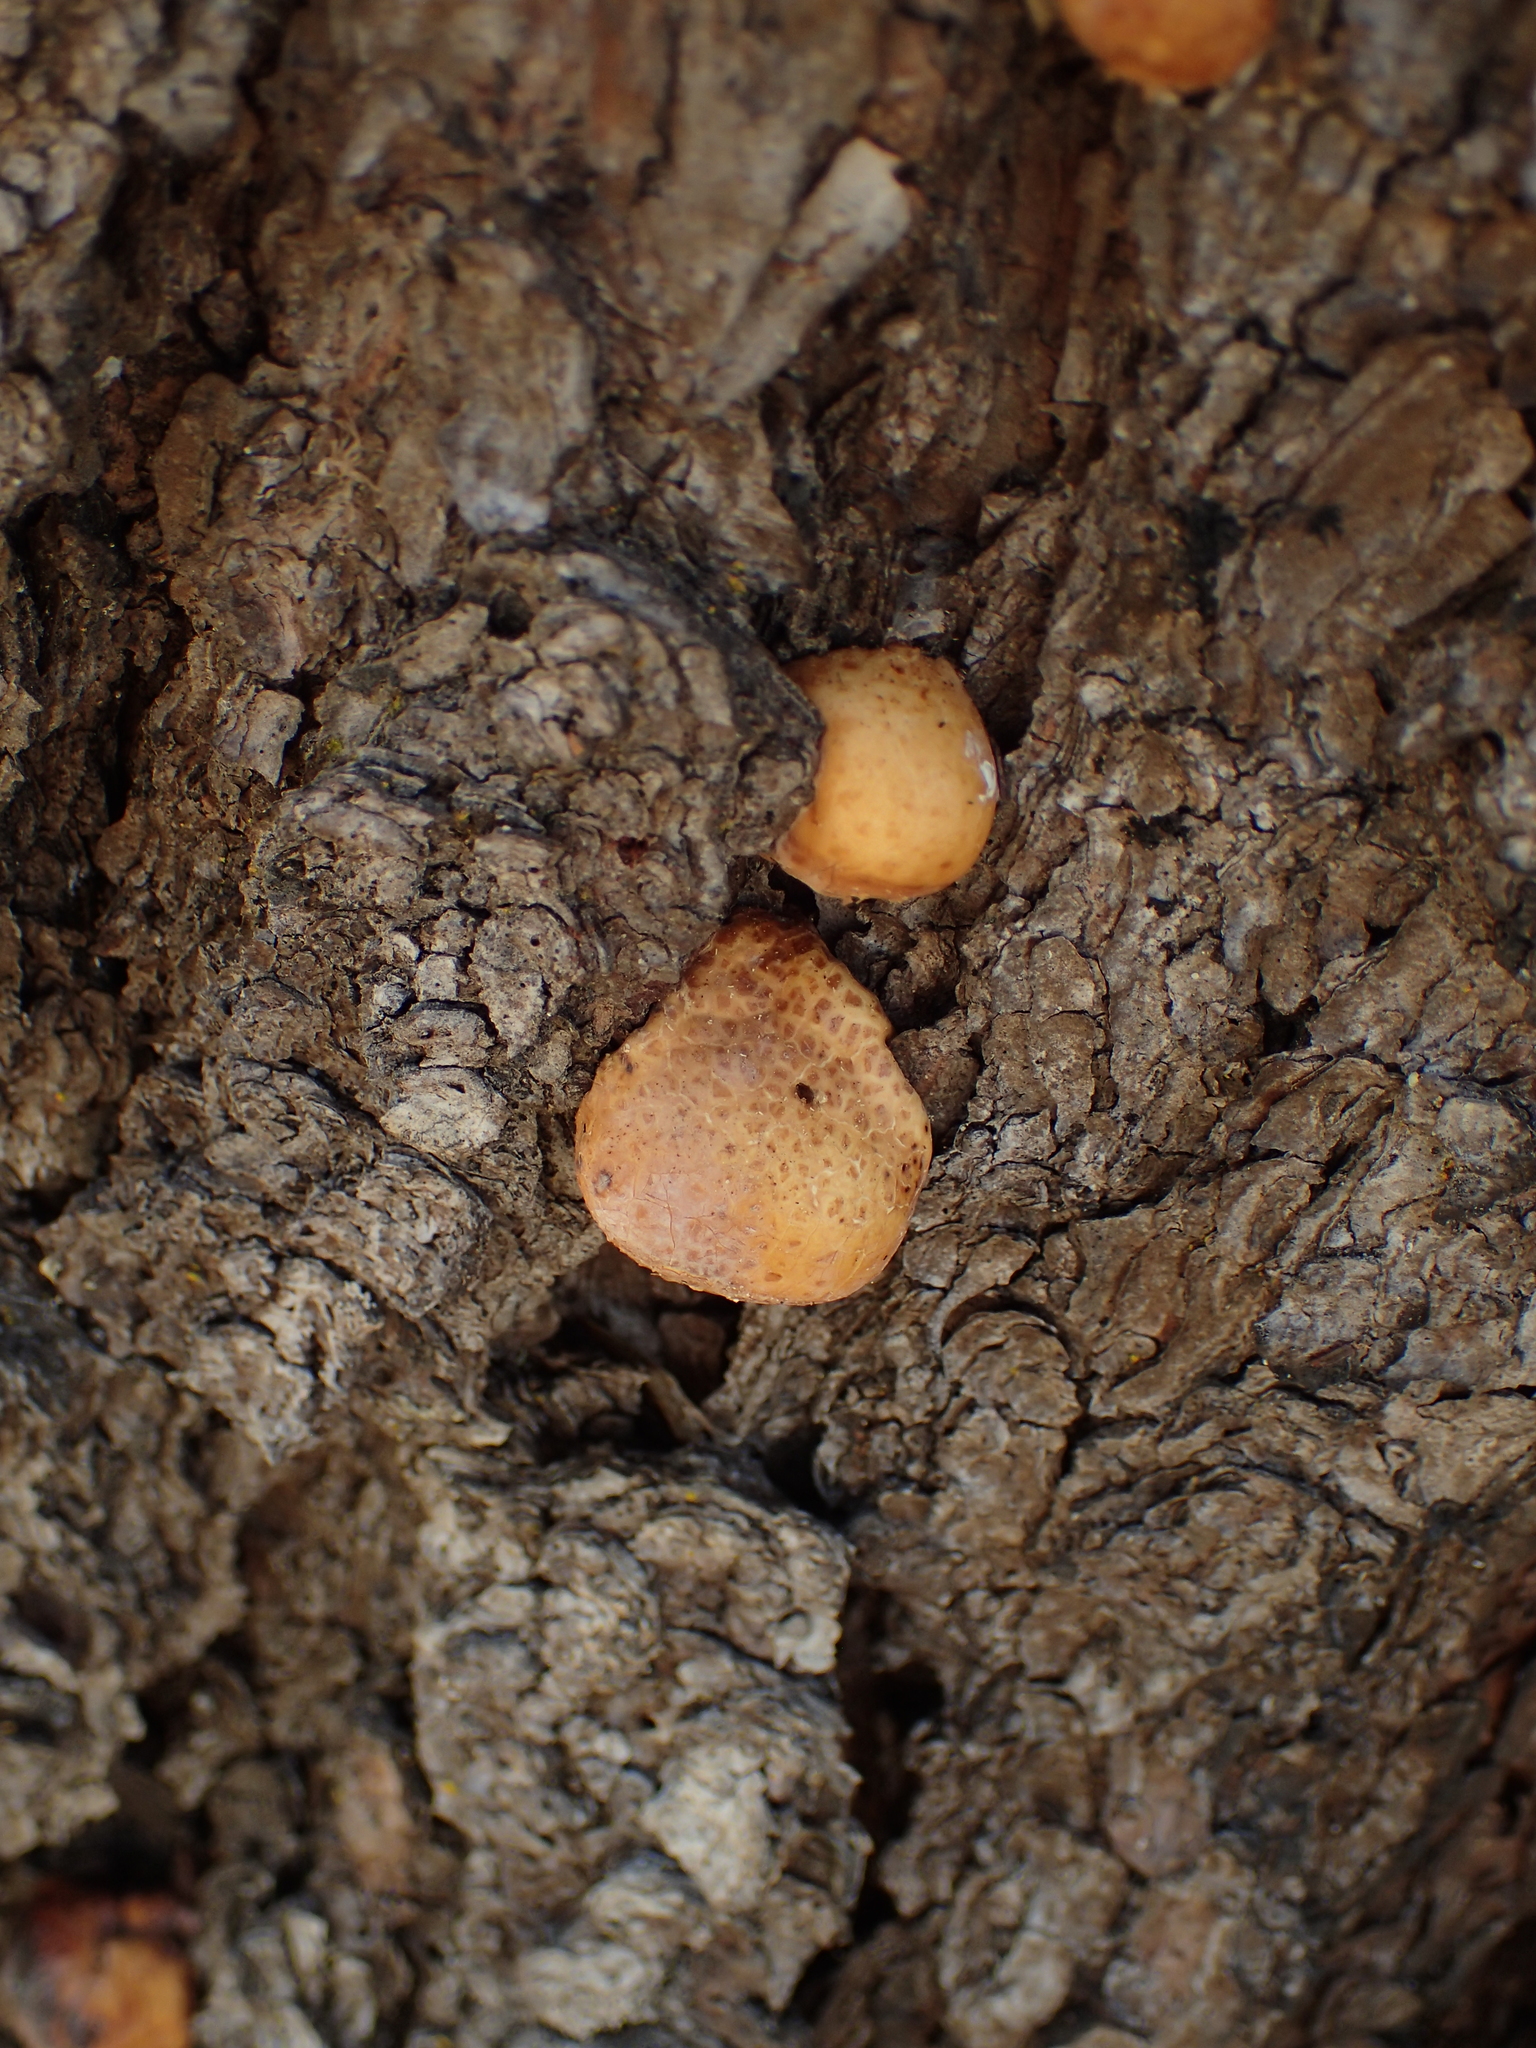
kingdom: Fungi
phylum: Basidiomycota
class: Agaricomycetes
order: Polyporales
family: Polyporaceae
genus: Cryptoporus
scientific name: Cryptoporus volvatus
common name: Veiled polypore
